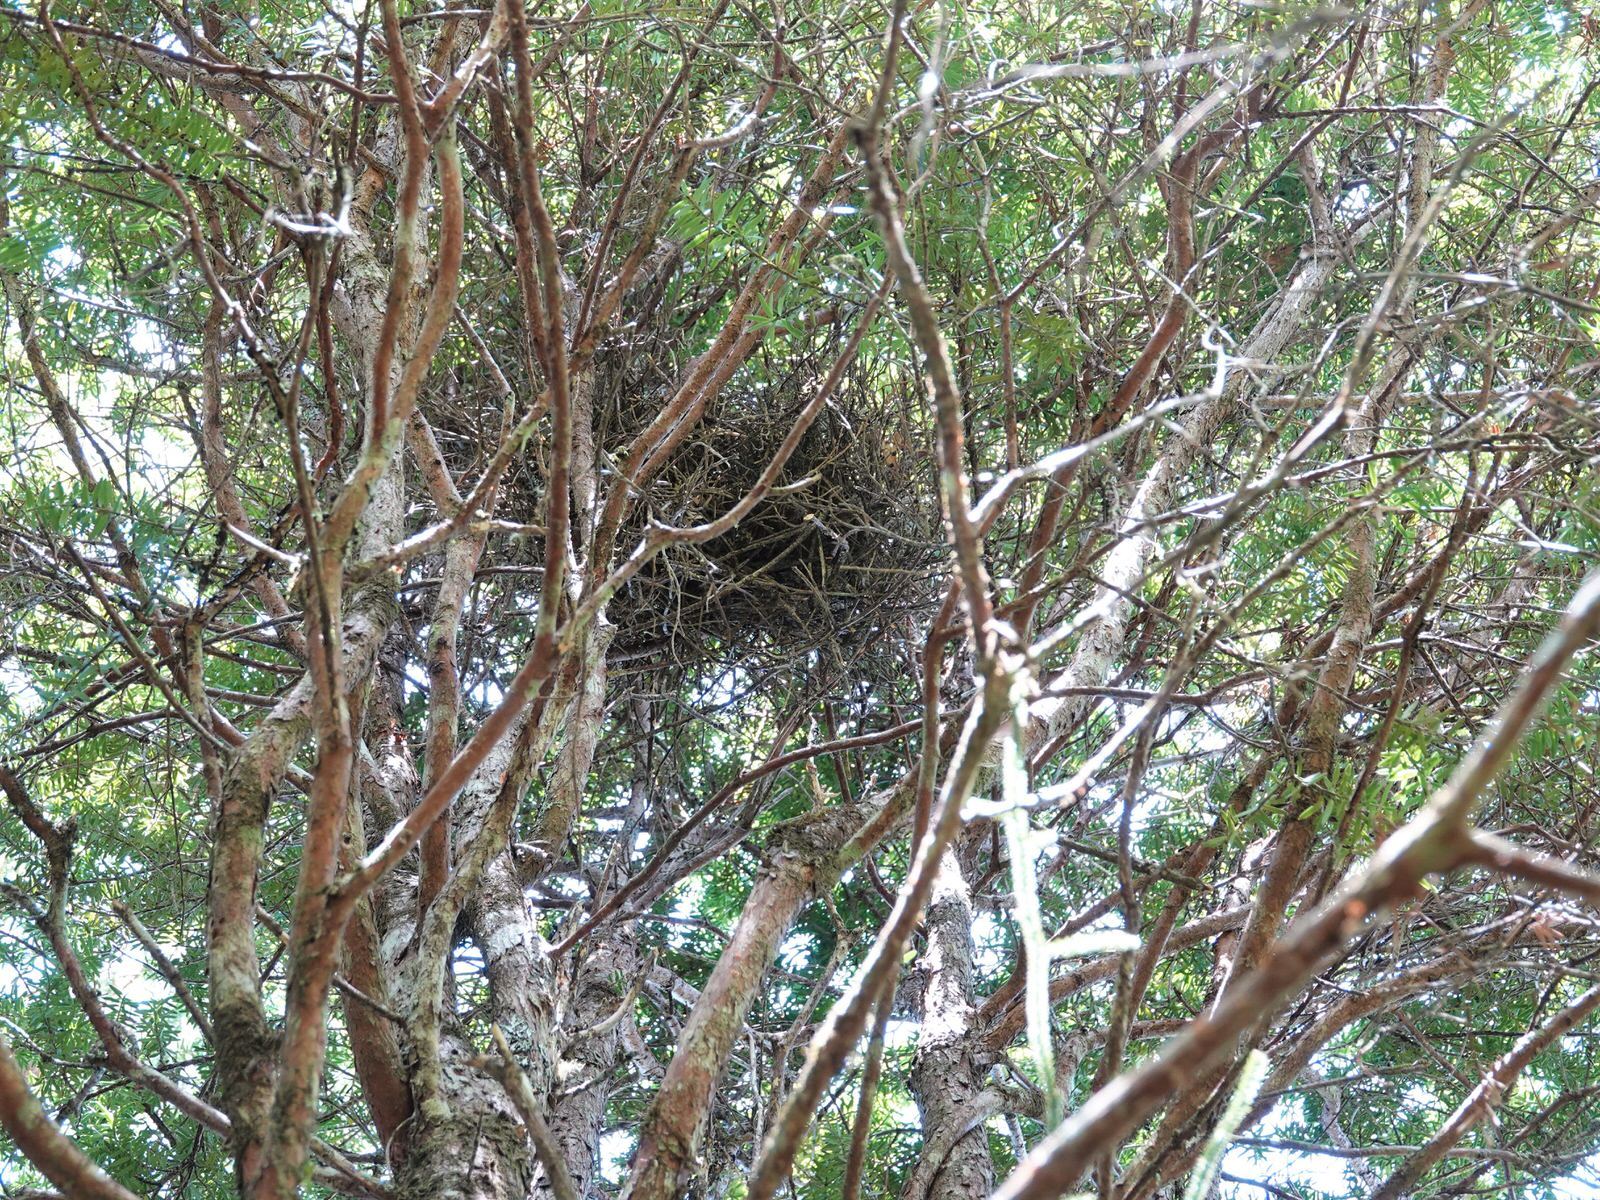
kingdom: Animalia
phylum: Chordata
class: Aves
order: Passeriformes
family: Callaeatidae
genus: Callaeas
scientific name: Callaeas cinereus
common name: South island kokako
